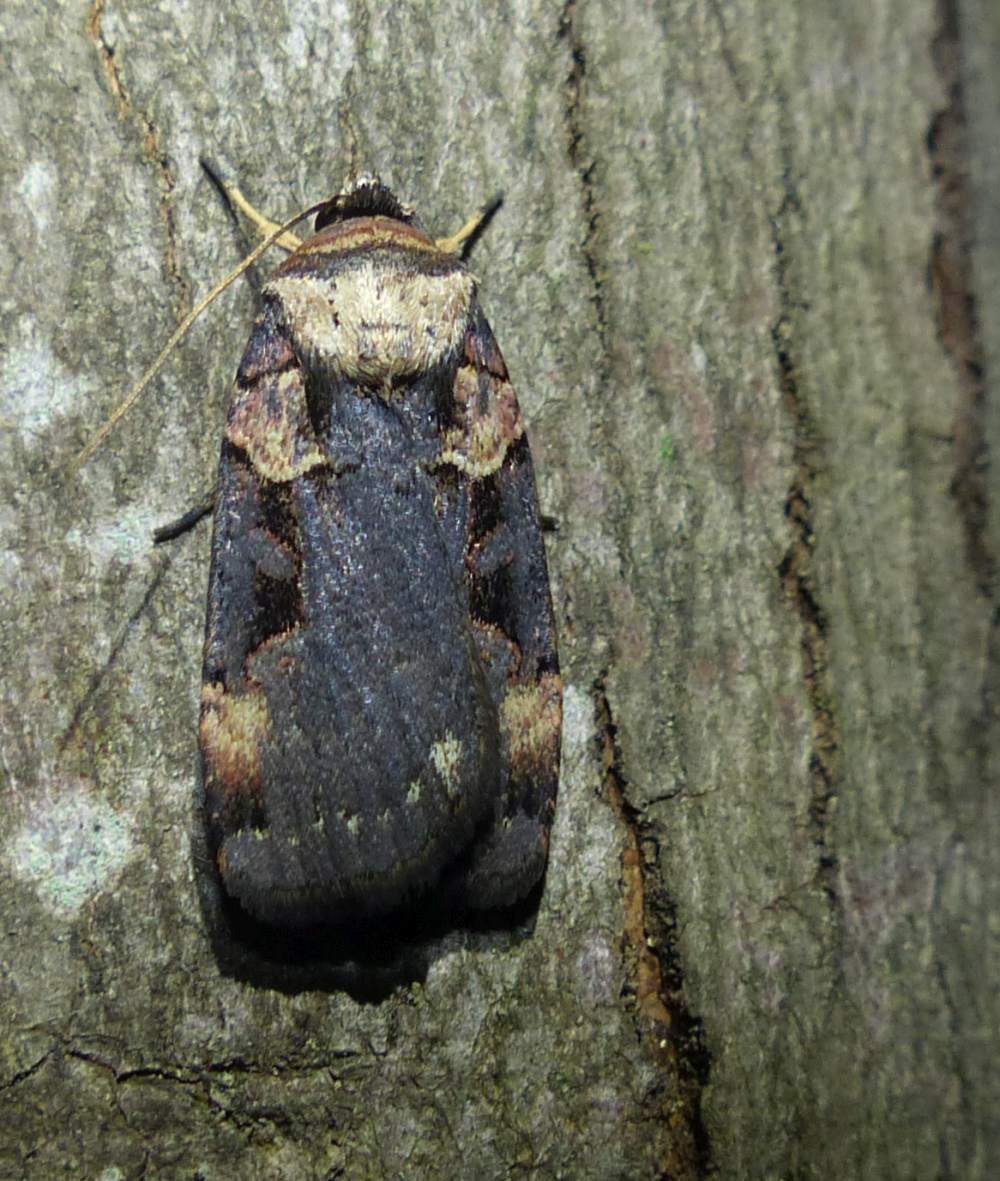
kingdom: Animalia
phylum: Arthropoda
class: Insecta
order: Lepidoptera
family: Noctuidae
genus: Pseudohermonassa
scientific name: Pseudohermonassa bicarnea
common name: Pink spotted dart
